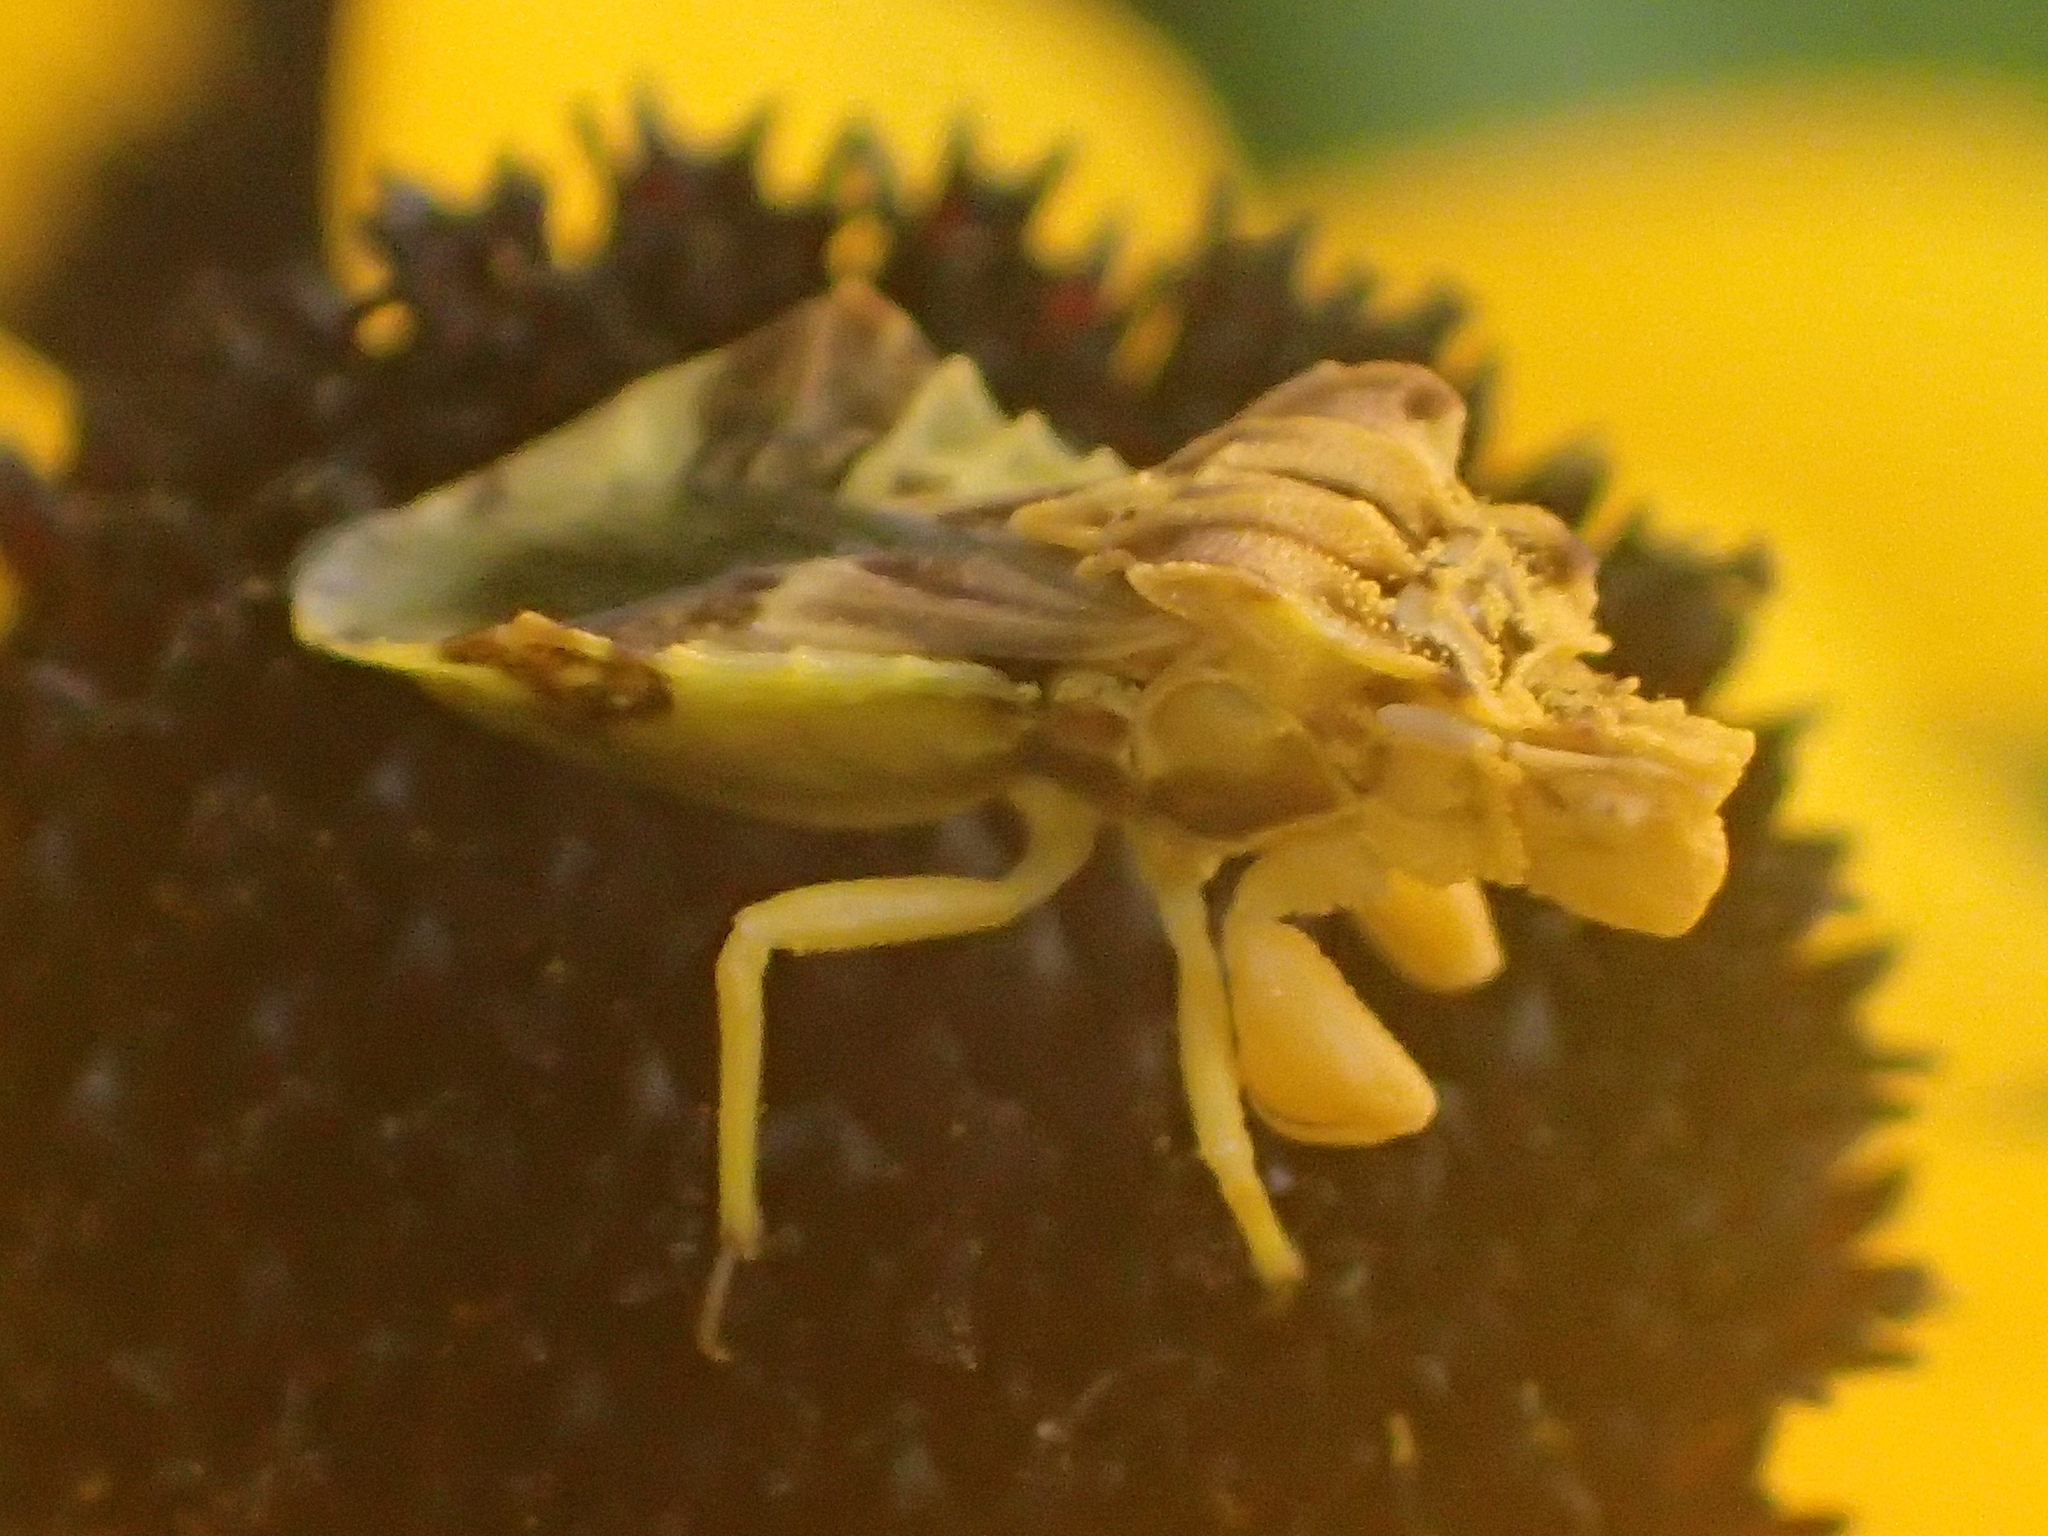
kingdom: Animalia
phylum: Arthropoda
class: Insecta
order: Hemiptera
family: Reduviidae
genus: Phymata
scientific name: Phymata fasciata
